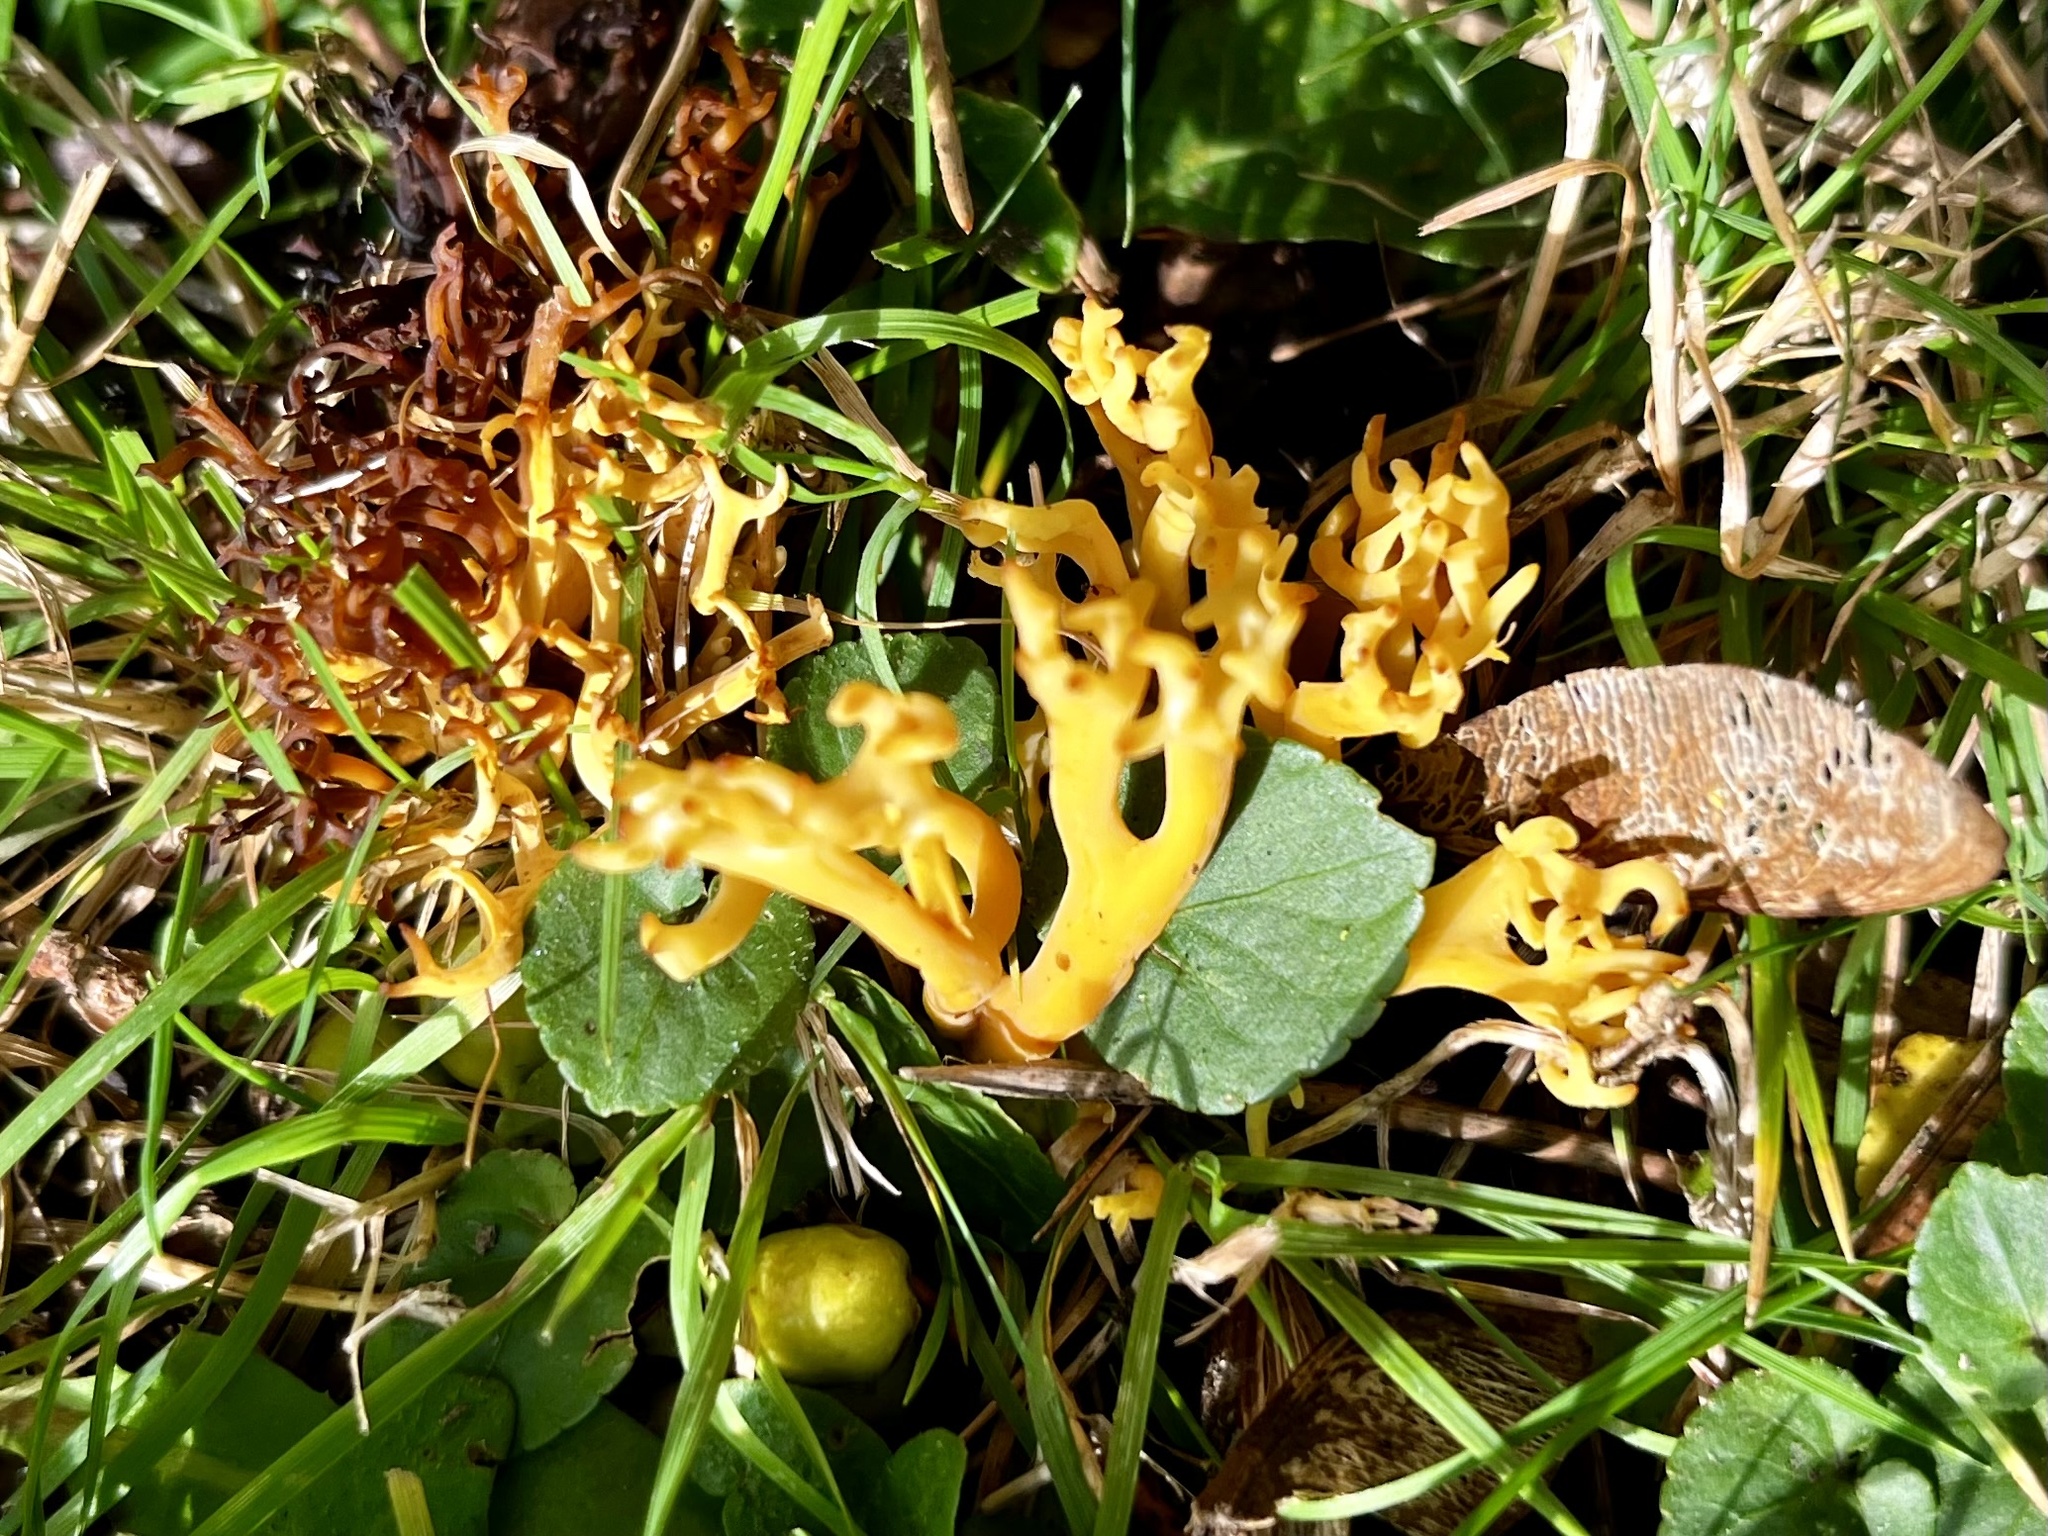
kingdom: Fungi
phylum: Basidiomycota
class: Agaricomycetes
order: Agaricales
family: Clavariaceae
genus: Clavulinopsis
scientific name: Clavulinopsis corniculata
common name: Meadow coral
